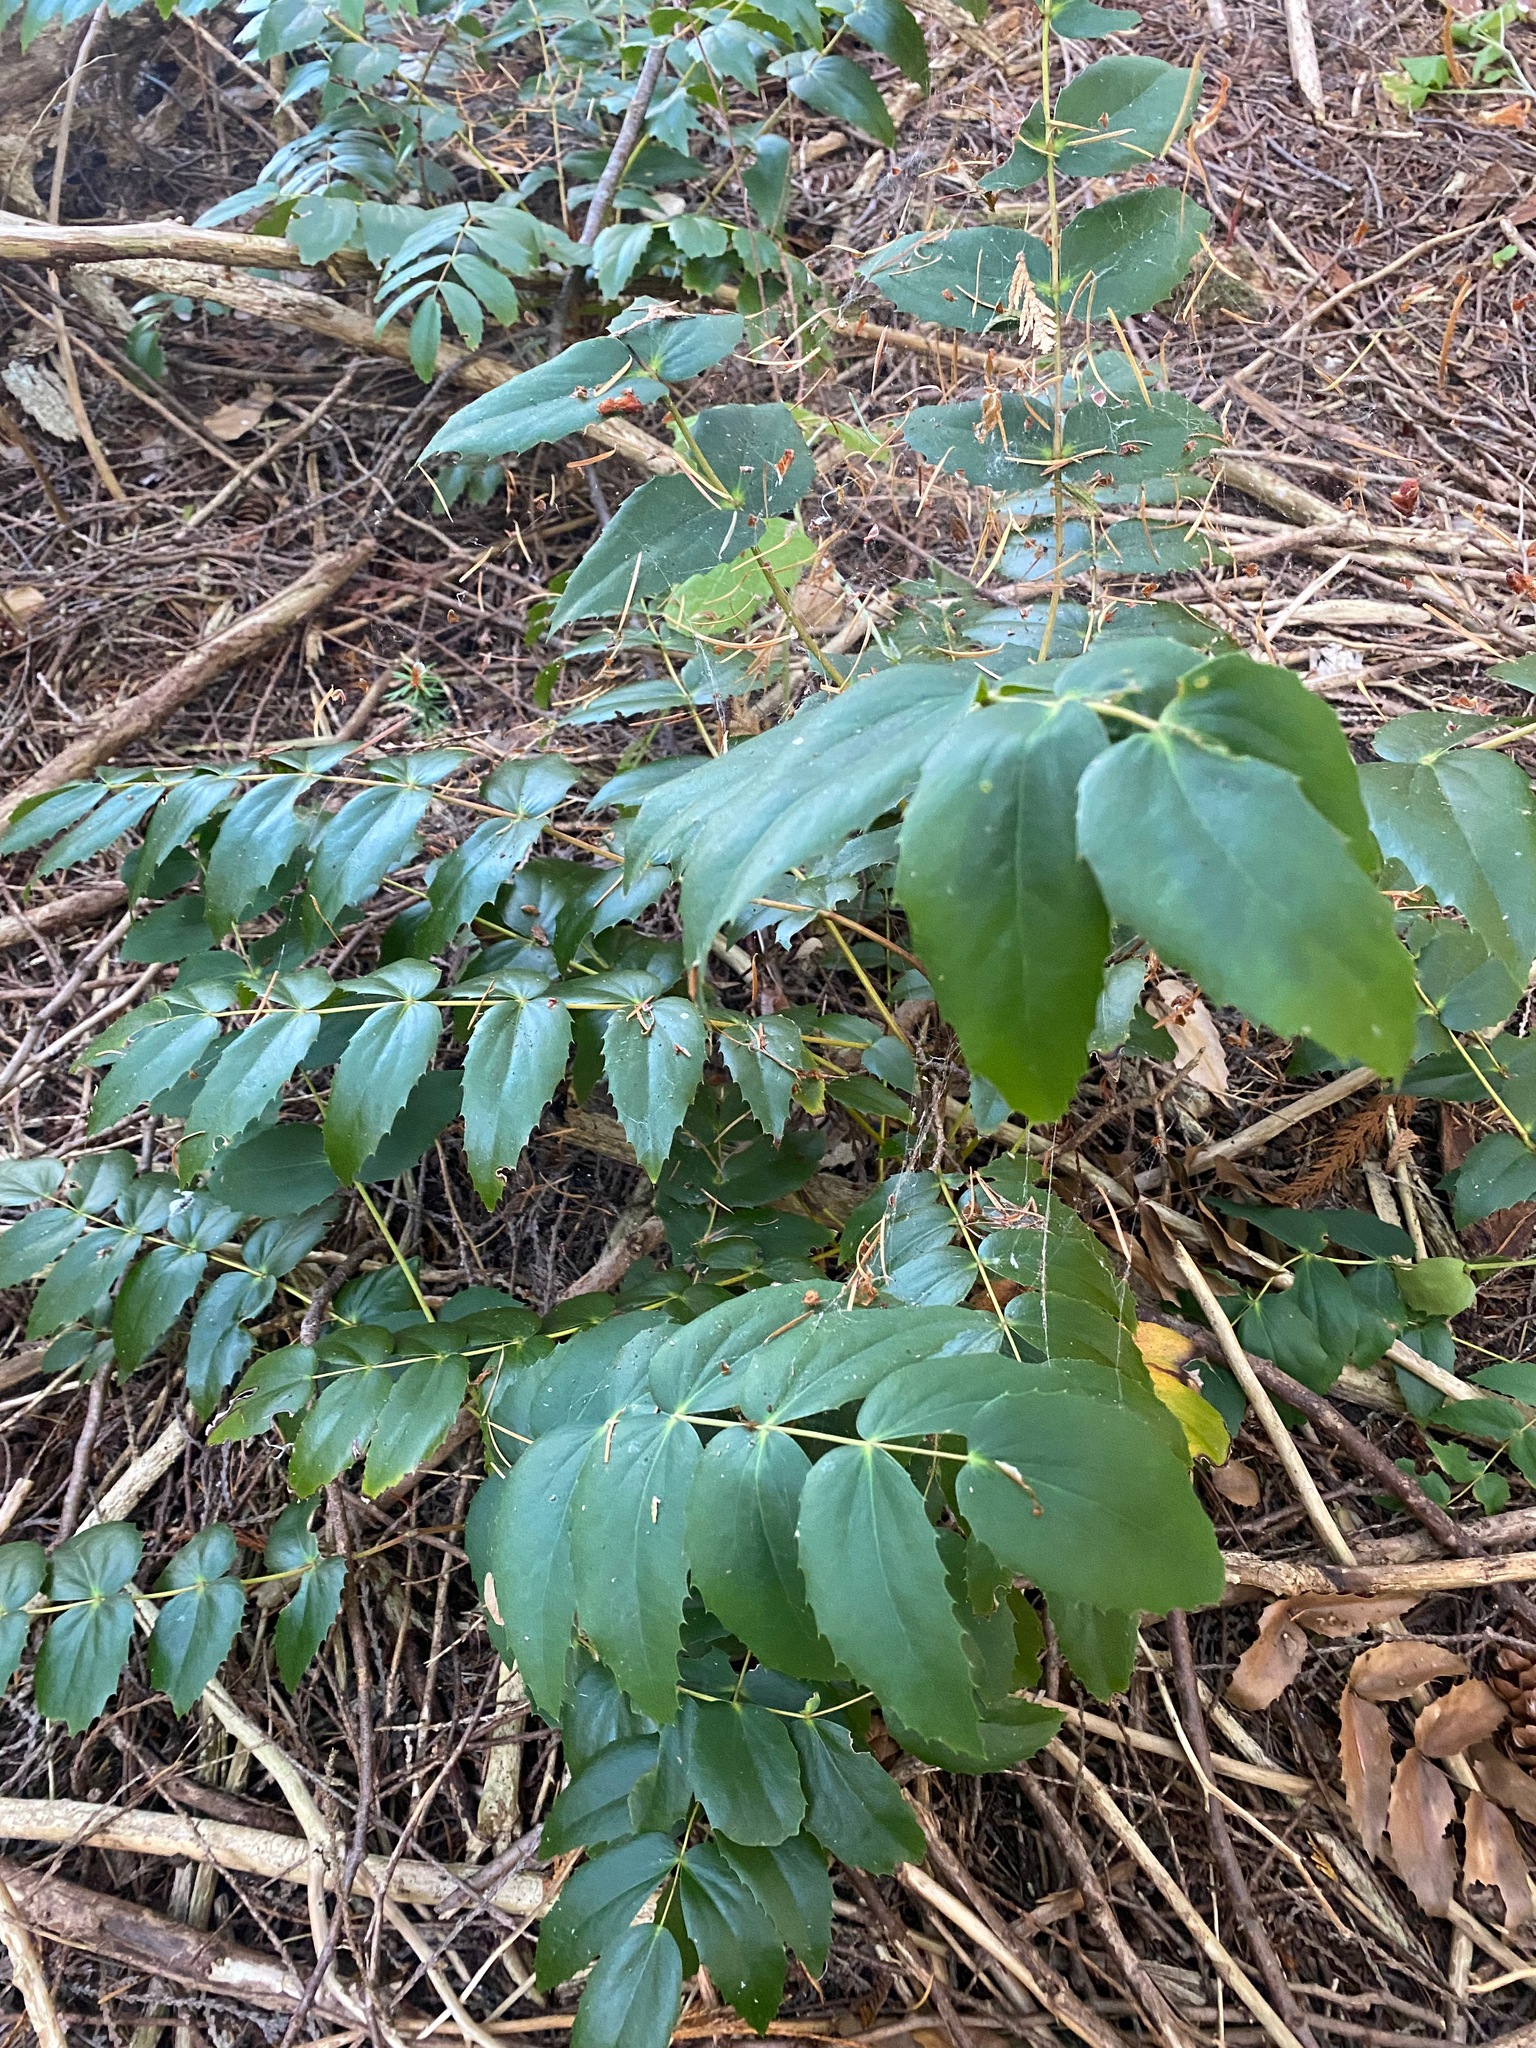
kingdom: Plantae
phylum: Tracheophyta
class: Magnoliopsida
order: Ranunculales
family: Berberidaceae
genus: Mahonia
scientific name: Mahonia nervosa
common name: Cascade oregon-grape
